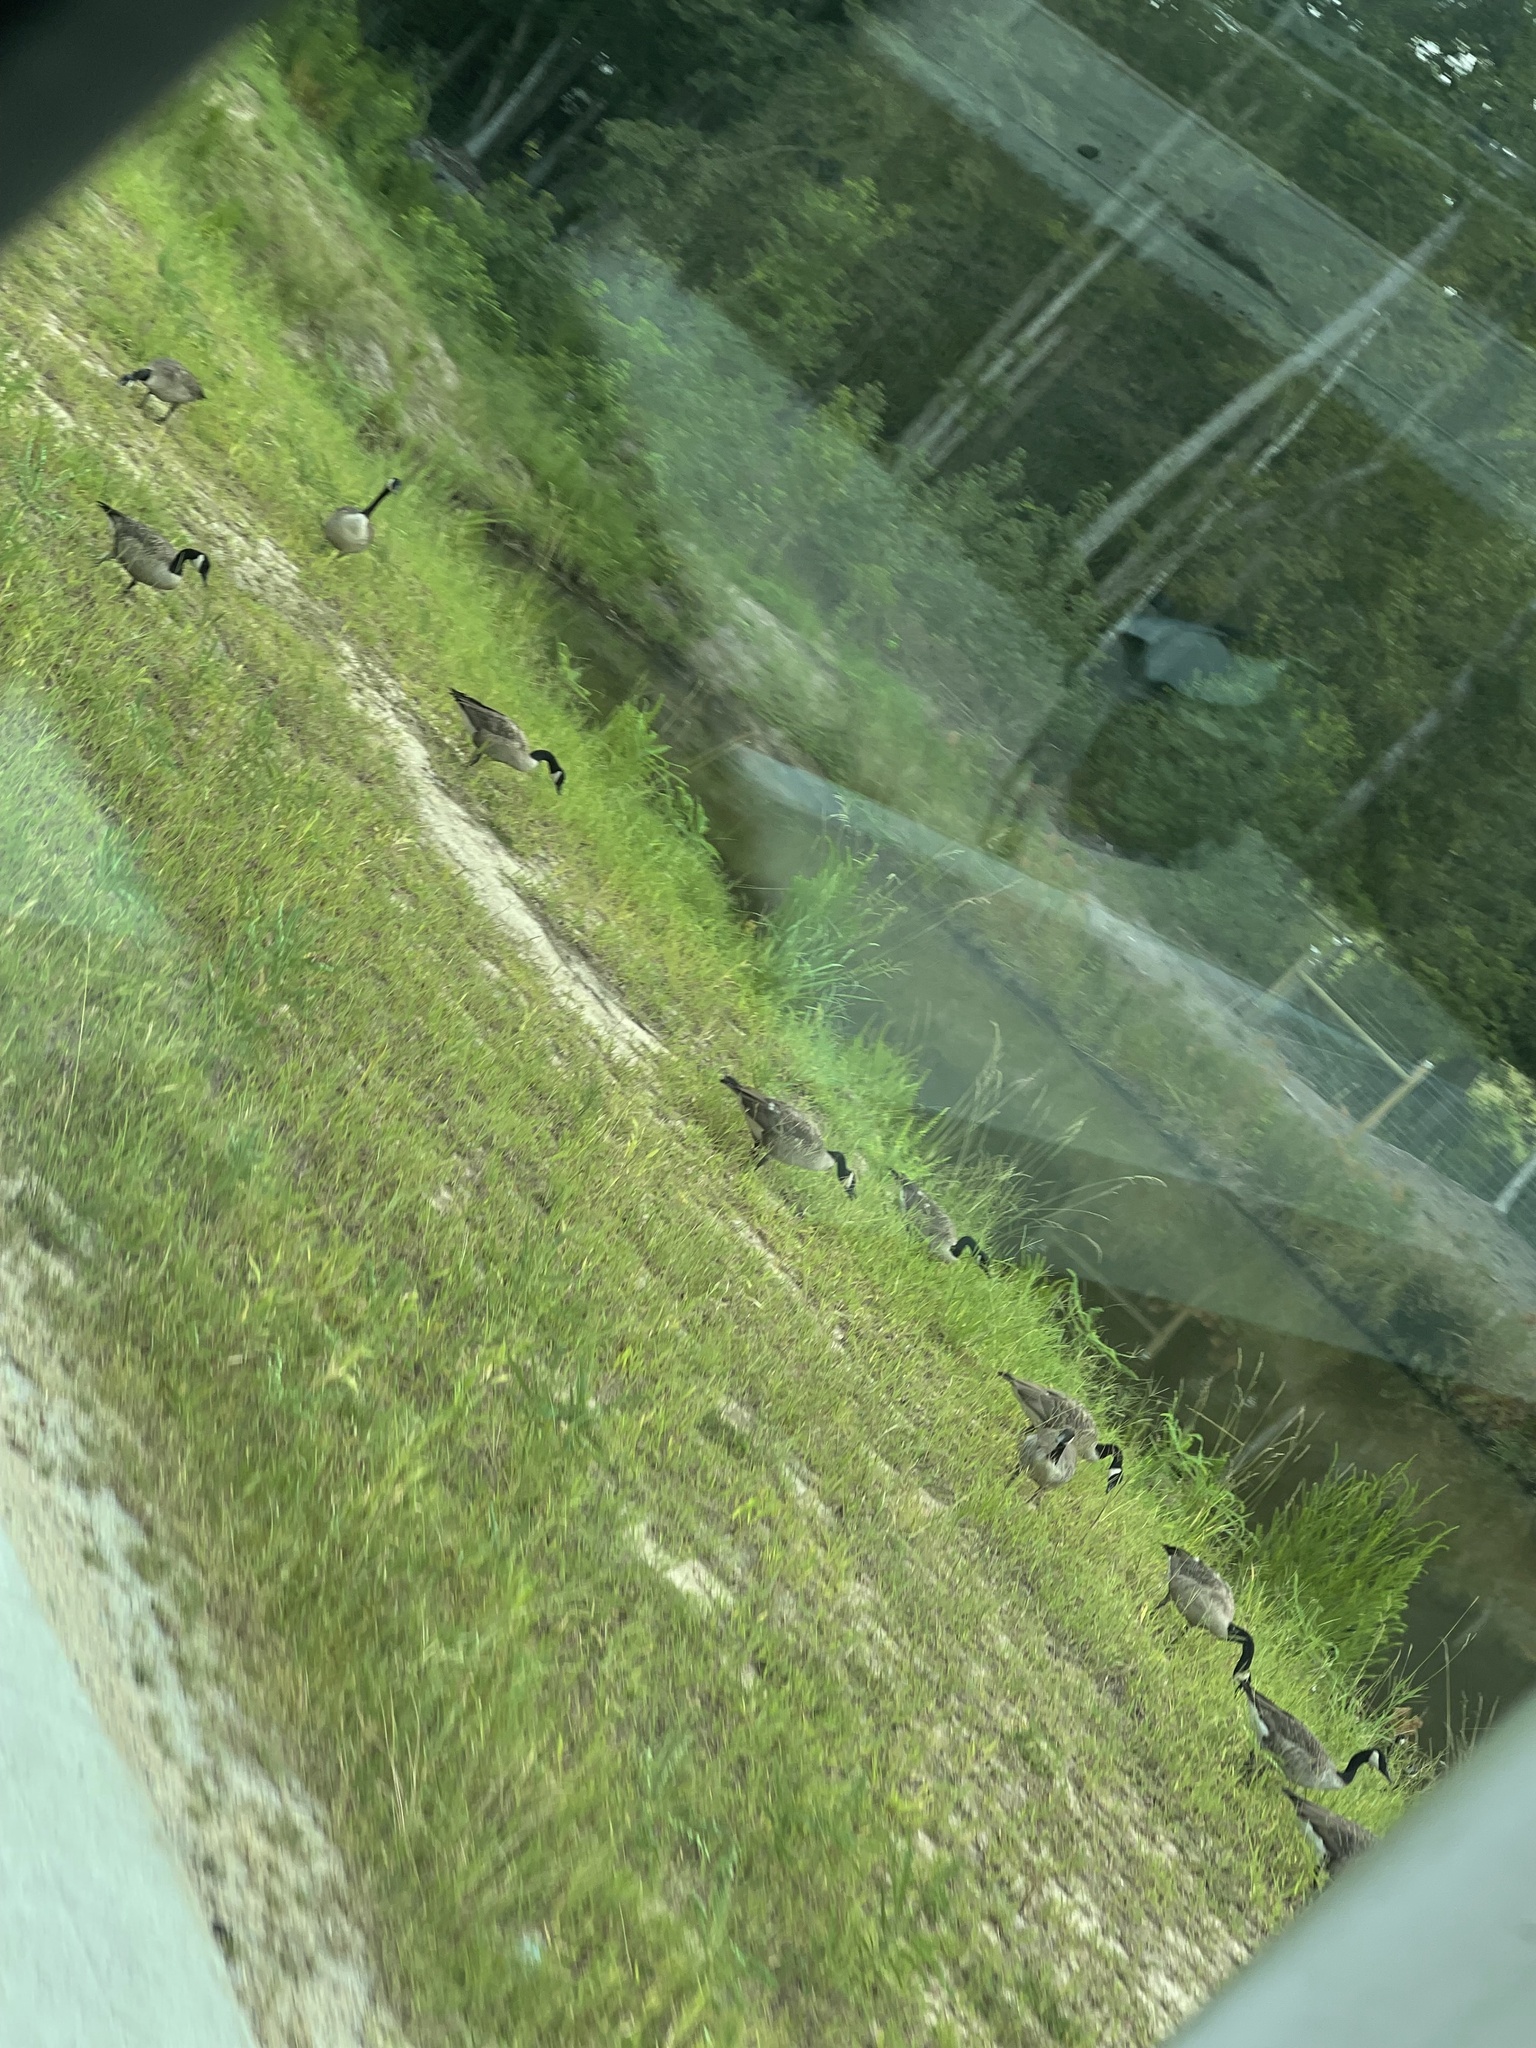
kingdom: Animalia
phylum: Chordata
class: Aves
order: Anseriformes
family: Anatidae
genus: Branta
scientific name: Branta canadensis
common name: Canada goose
